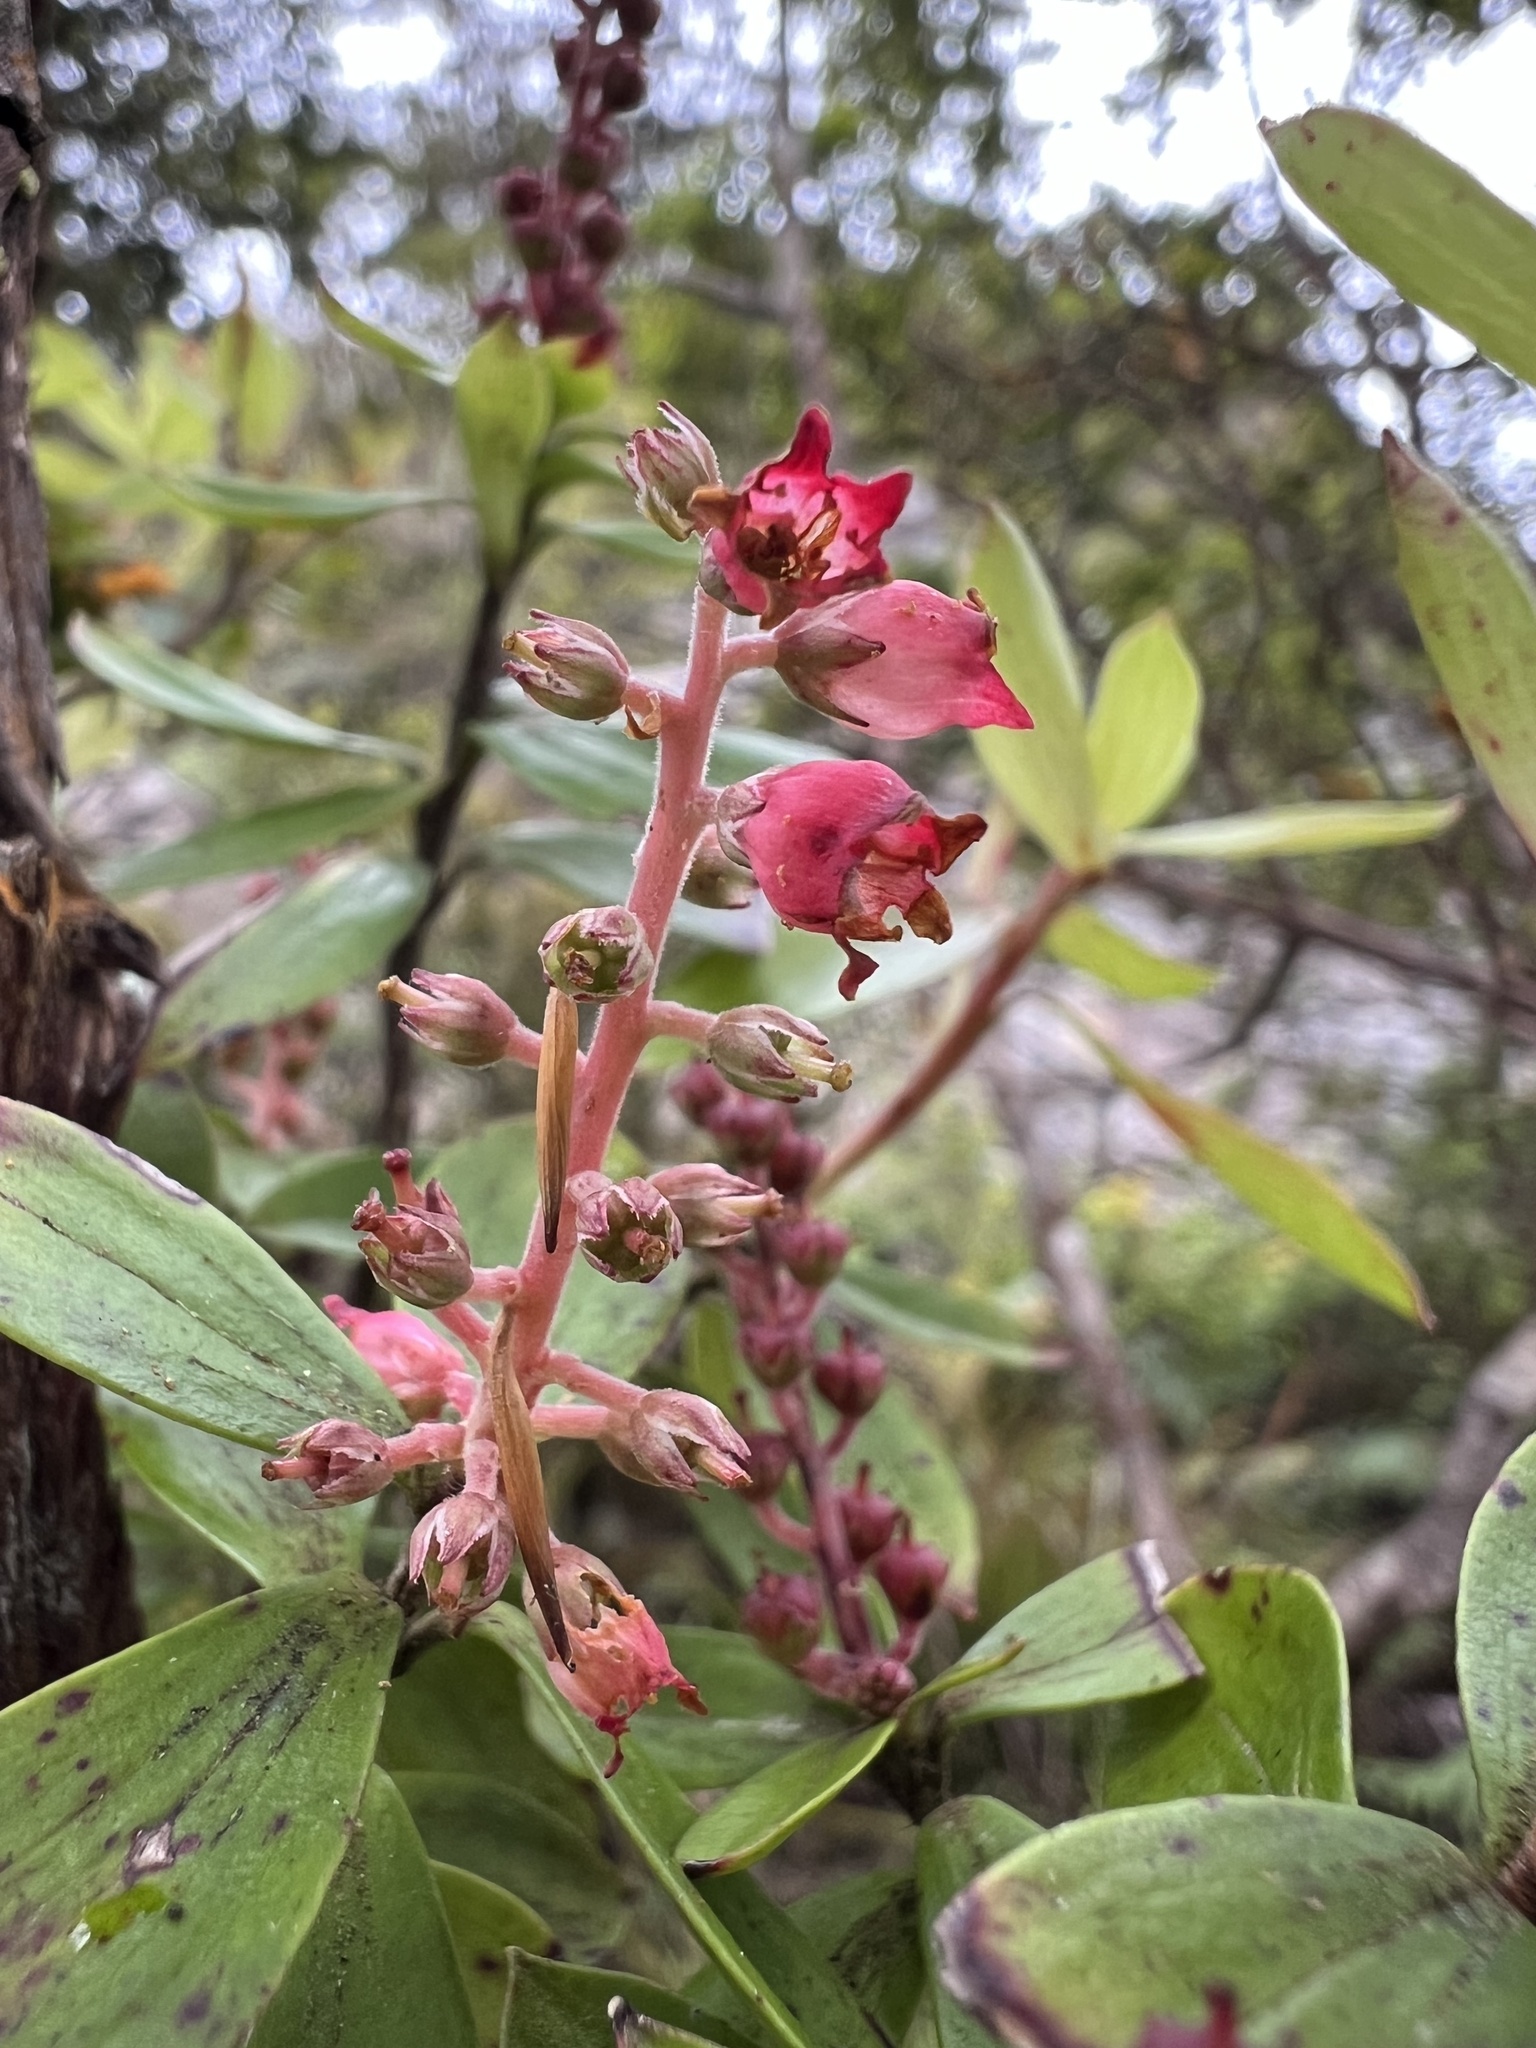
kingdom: Plantae
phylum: Tracheophyta
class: Magnoliopsida
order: Ericales
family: Ericaceae
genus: Archeria
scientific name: Archeria racemosa
